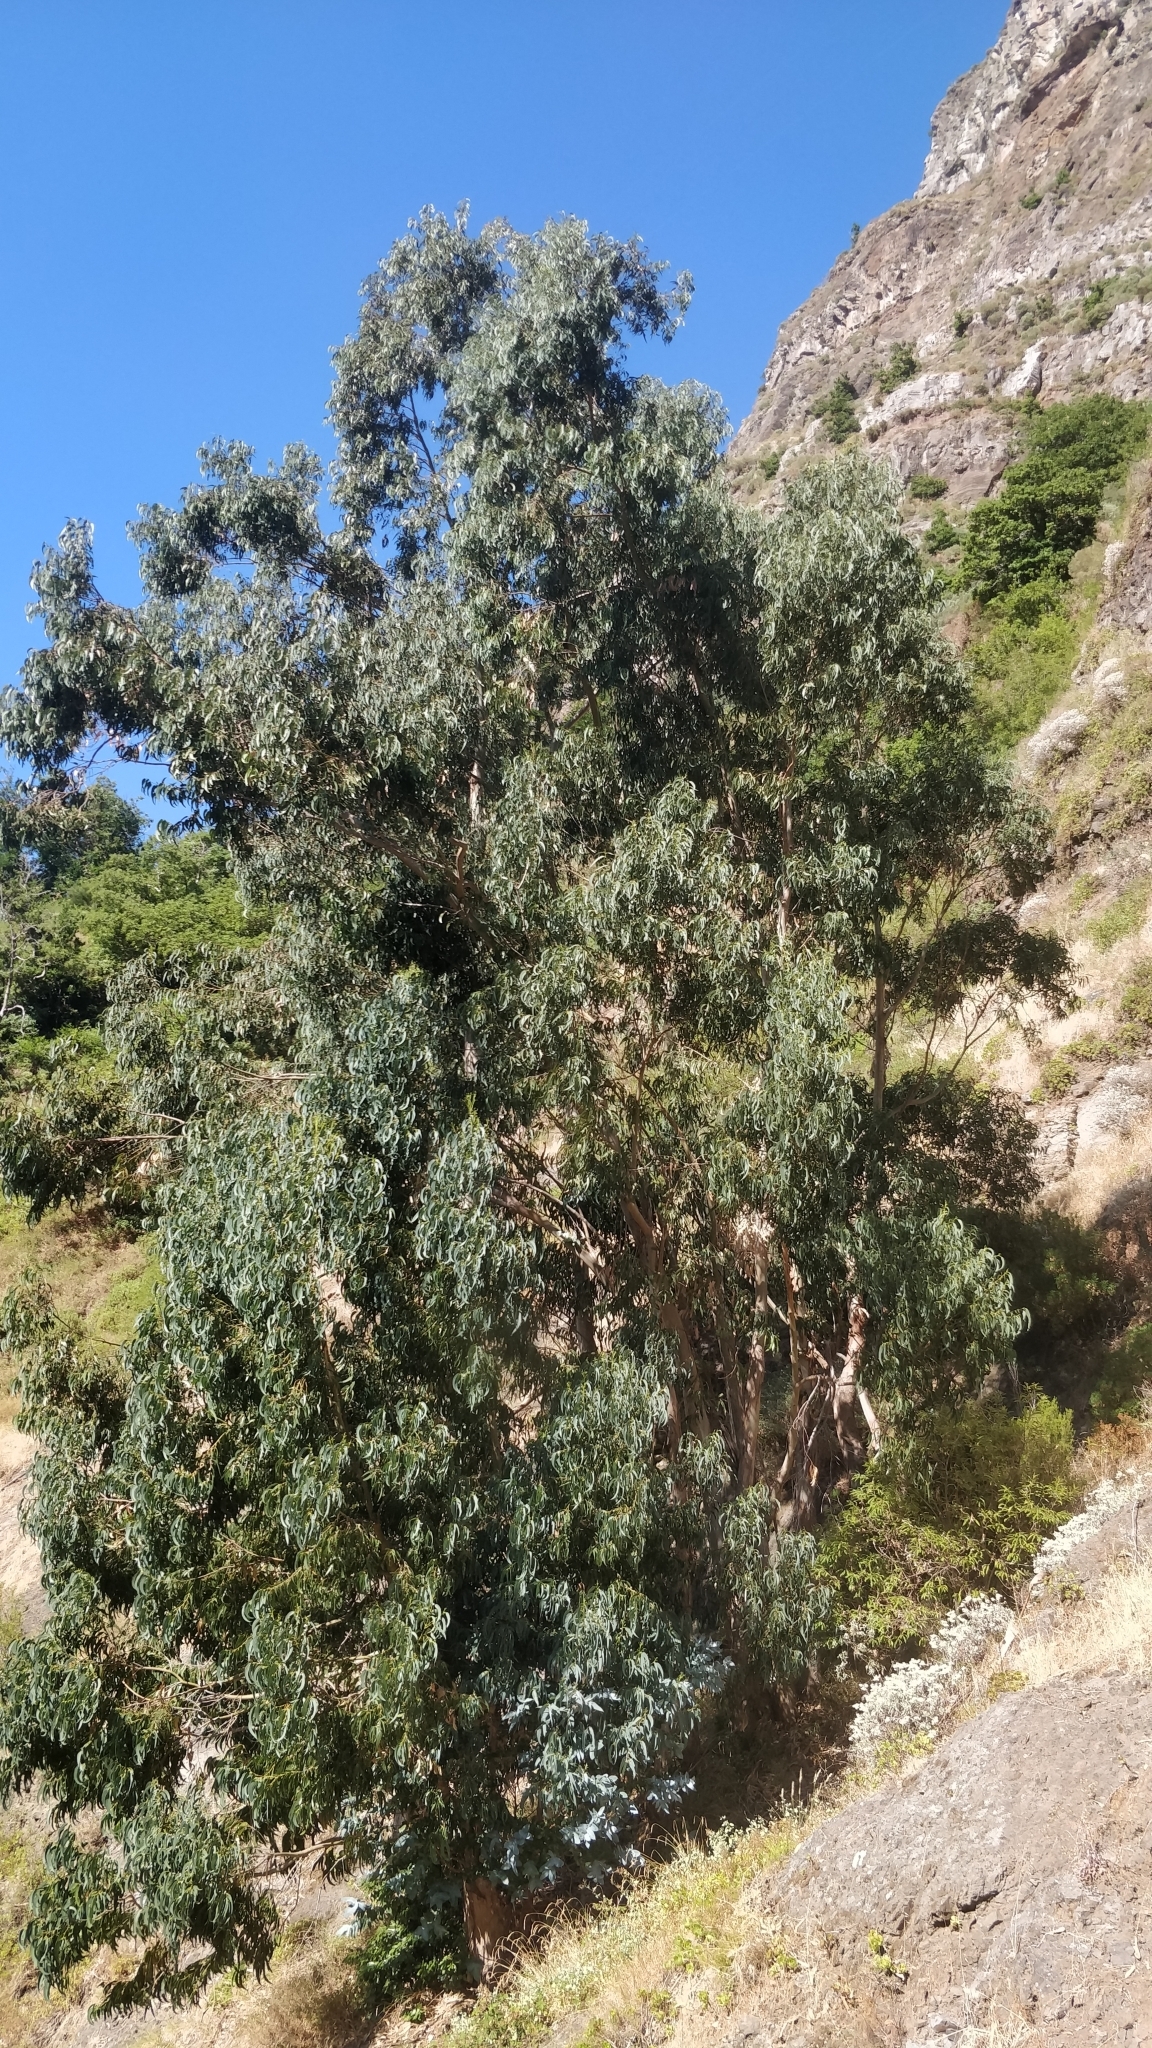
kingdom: Plantae
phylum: Tracheophyta
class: Magnoliopsida
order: Myrtales
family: Myrtaceae
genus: Eucalyptus
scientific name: Eucalyptus globulus
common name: Southern blue-gum
